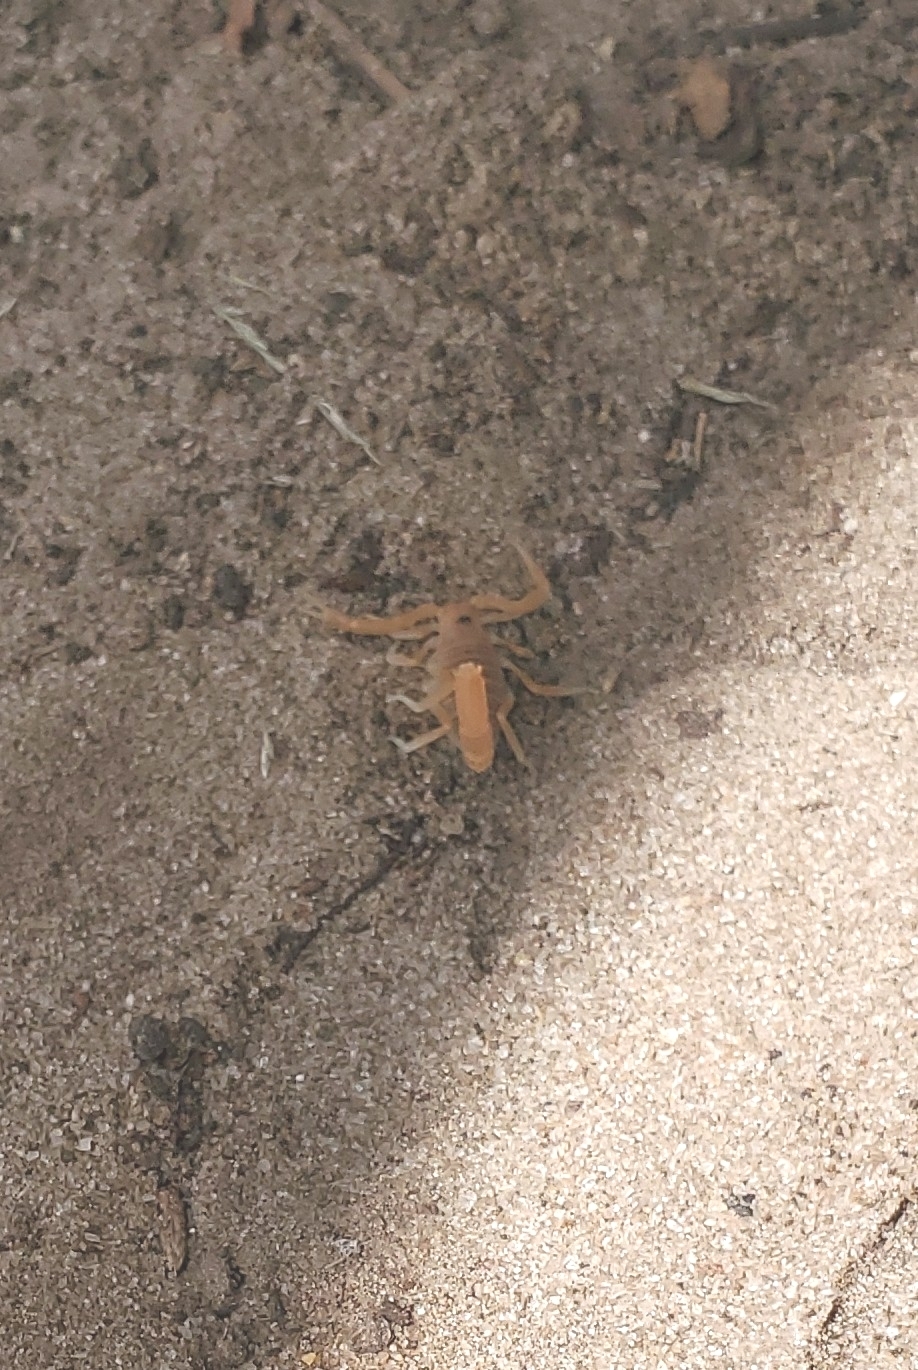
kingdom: Animalia
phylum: Arthropoda
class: Arachnida
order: Scorpiones
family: Buthidae
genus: Parabuthus
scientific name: Parabuthus pallidus
